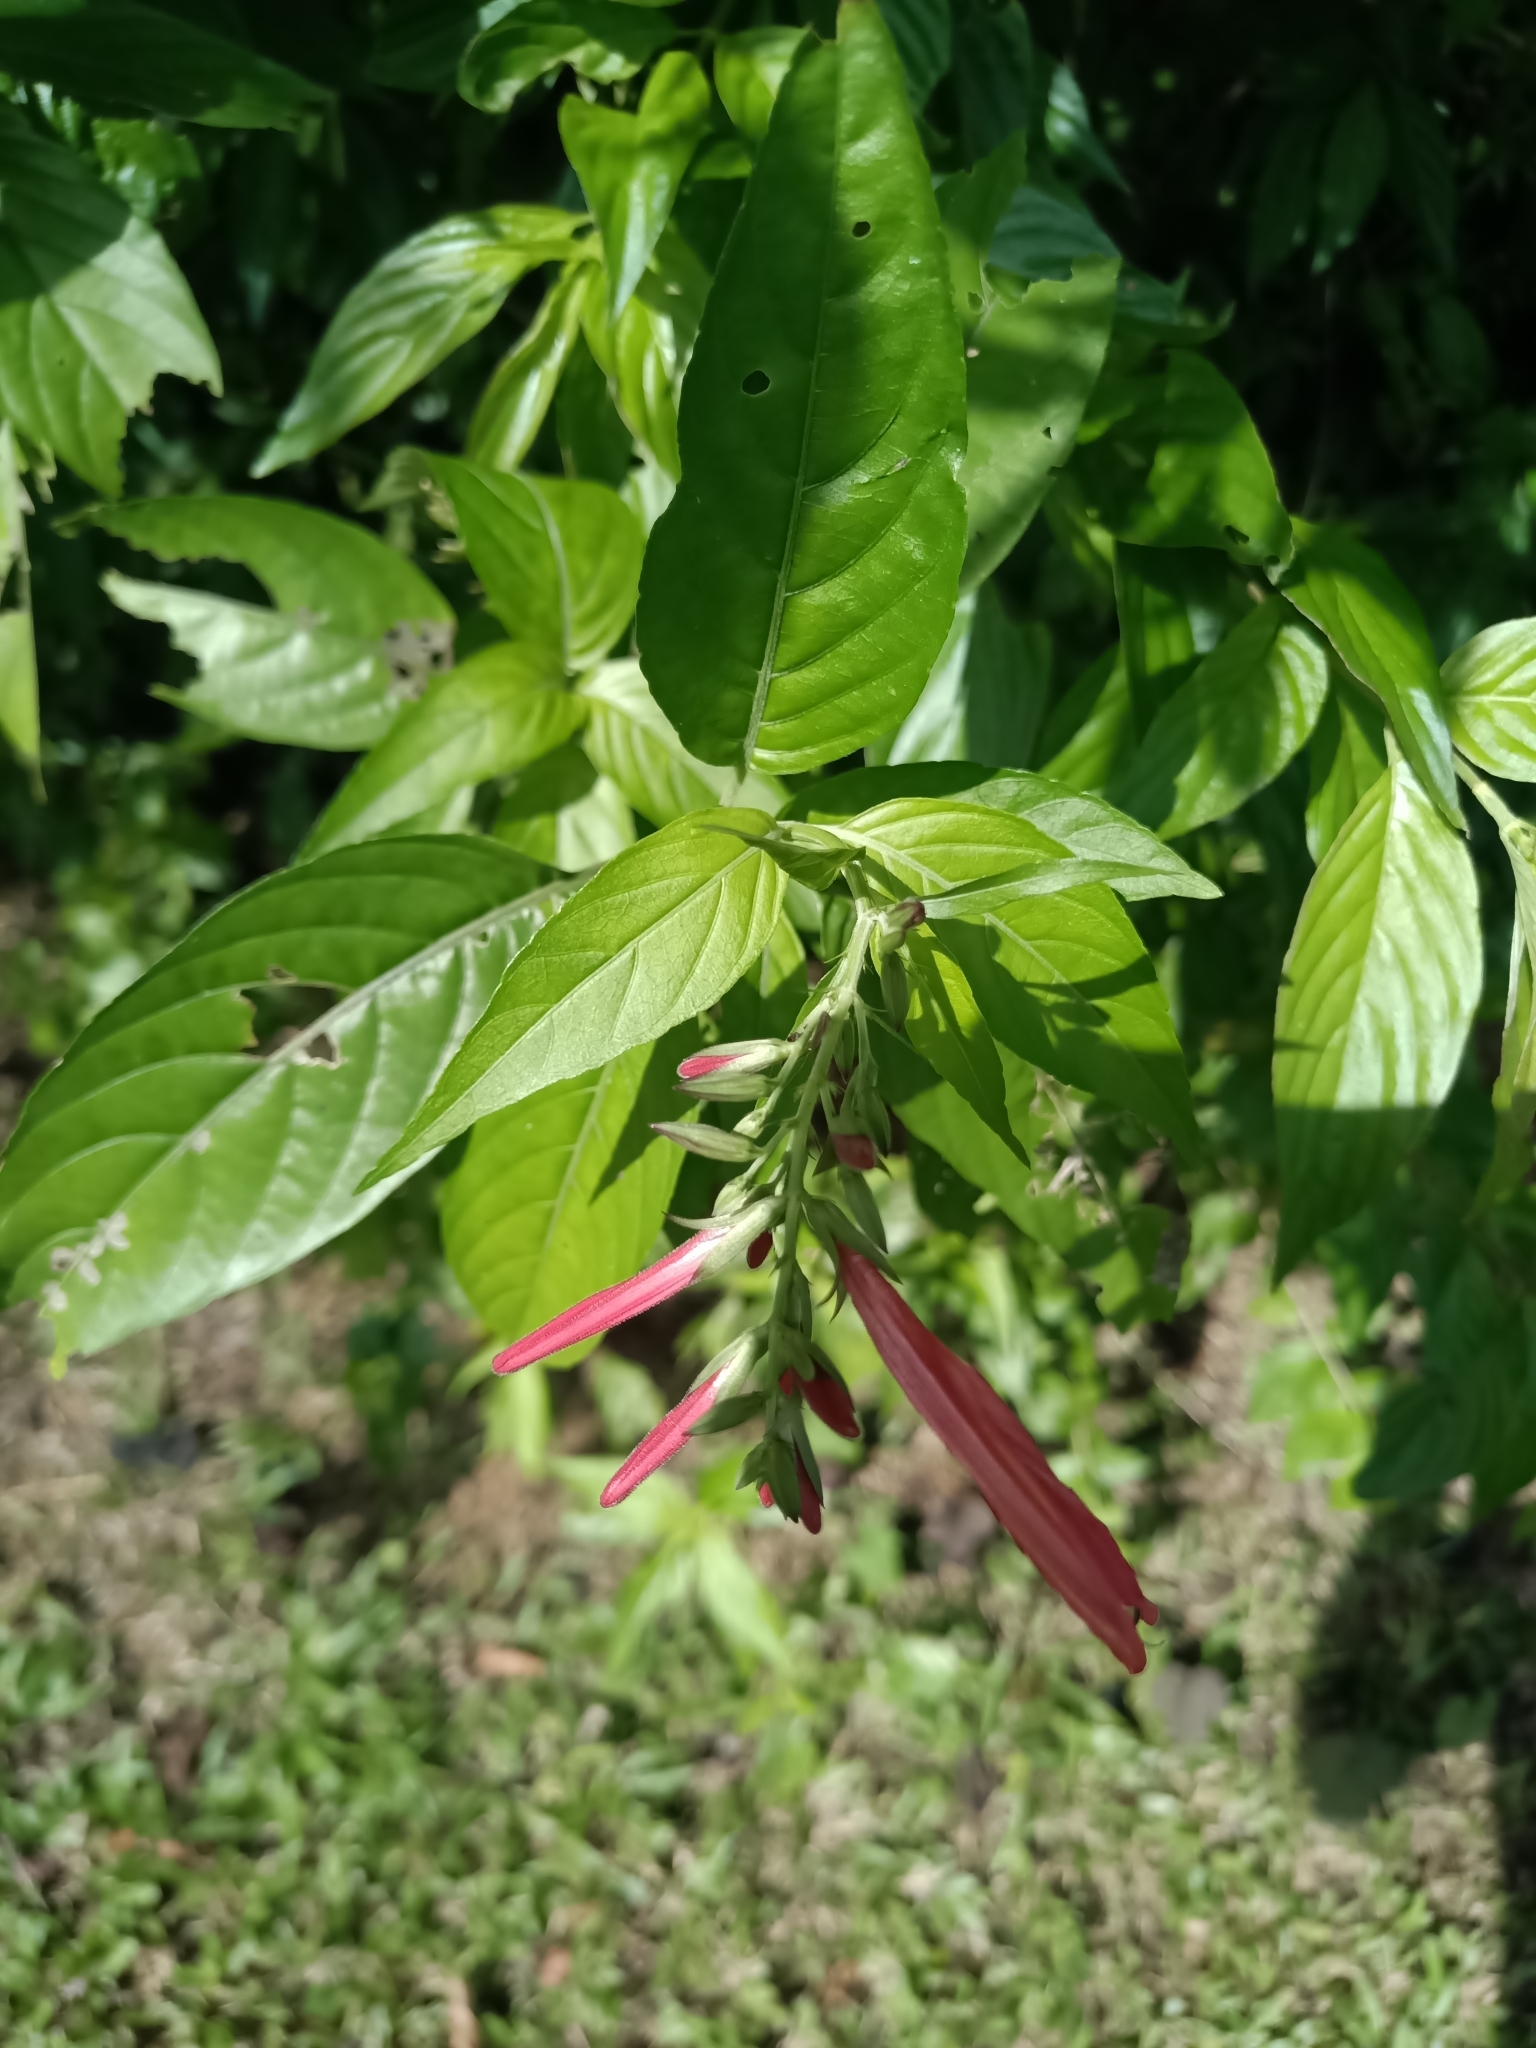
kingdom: Plantae
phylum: Tracheophyta
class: Magnoliopsida
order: Lamiales
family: Acanthaceae
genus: Dianthera
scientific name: Dianthera secunda
